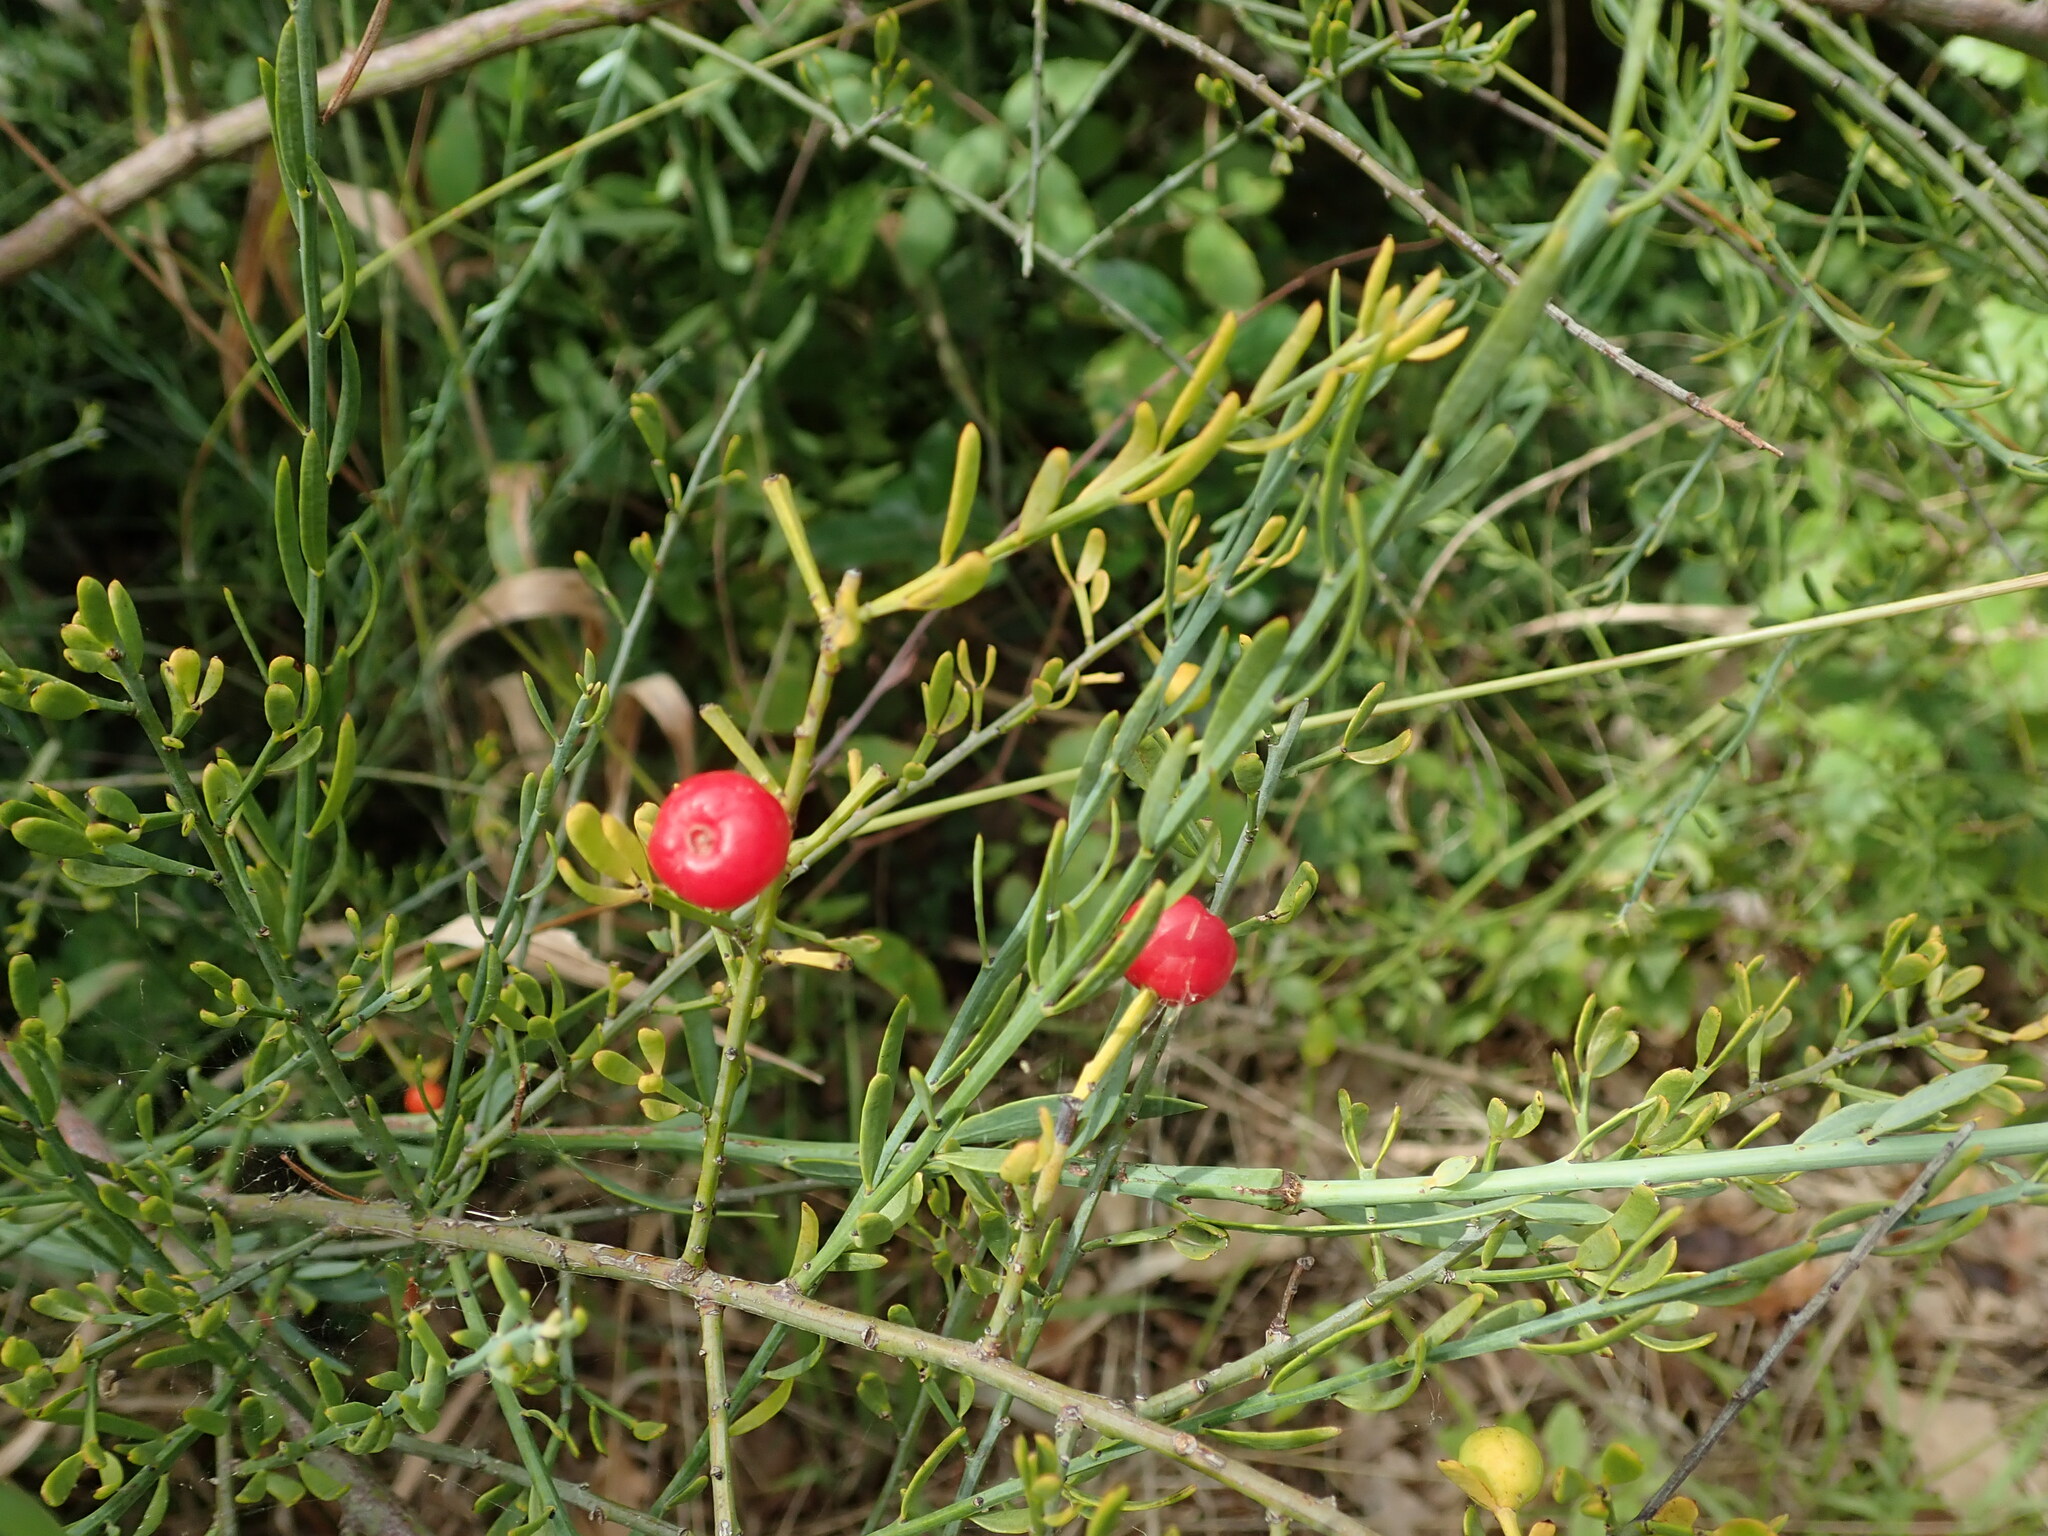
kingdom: Plantae
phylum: Tracheophyta
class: Magnoliopsida
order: Santalales
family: Santalaceae
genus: Osyris
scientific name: Osyris alba
